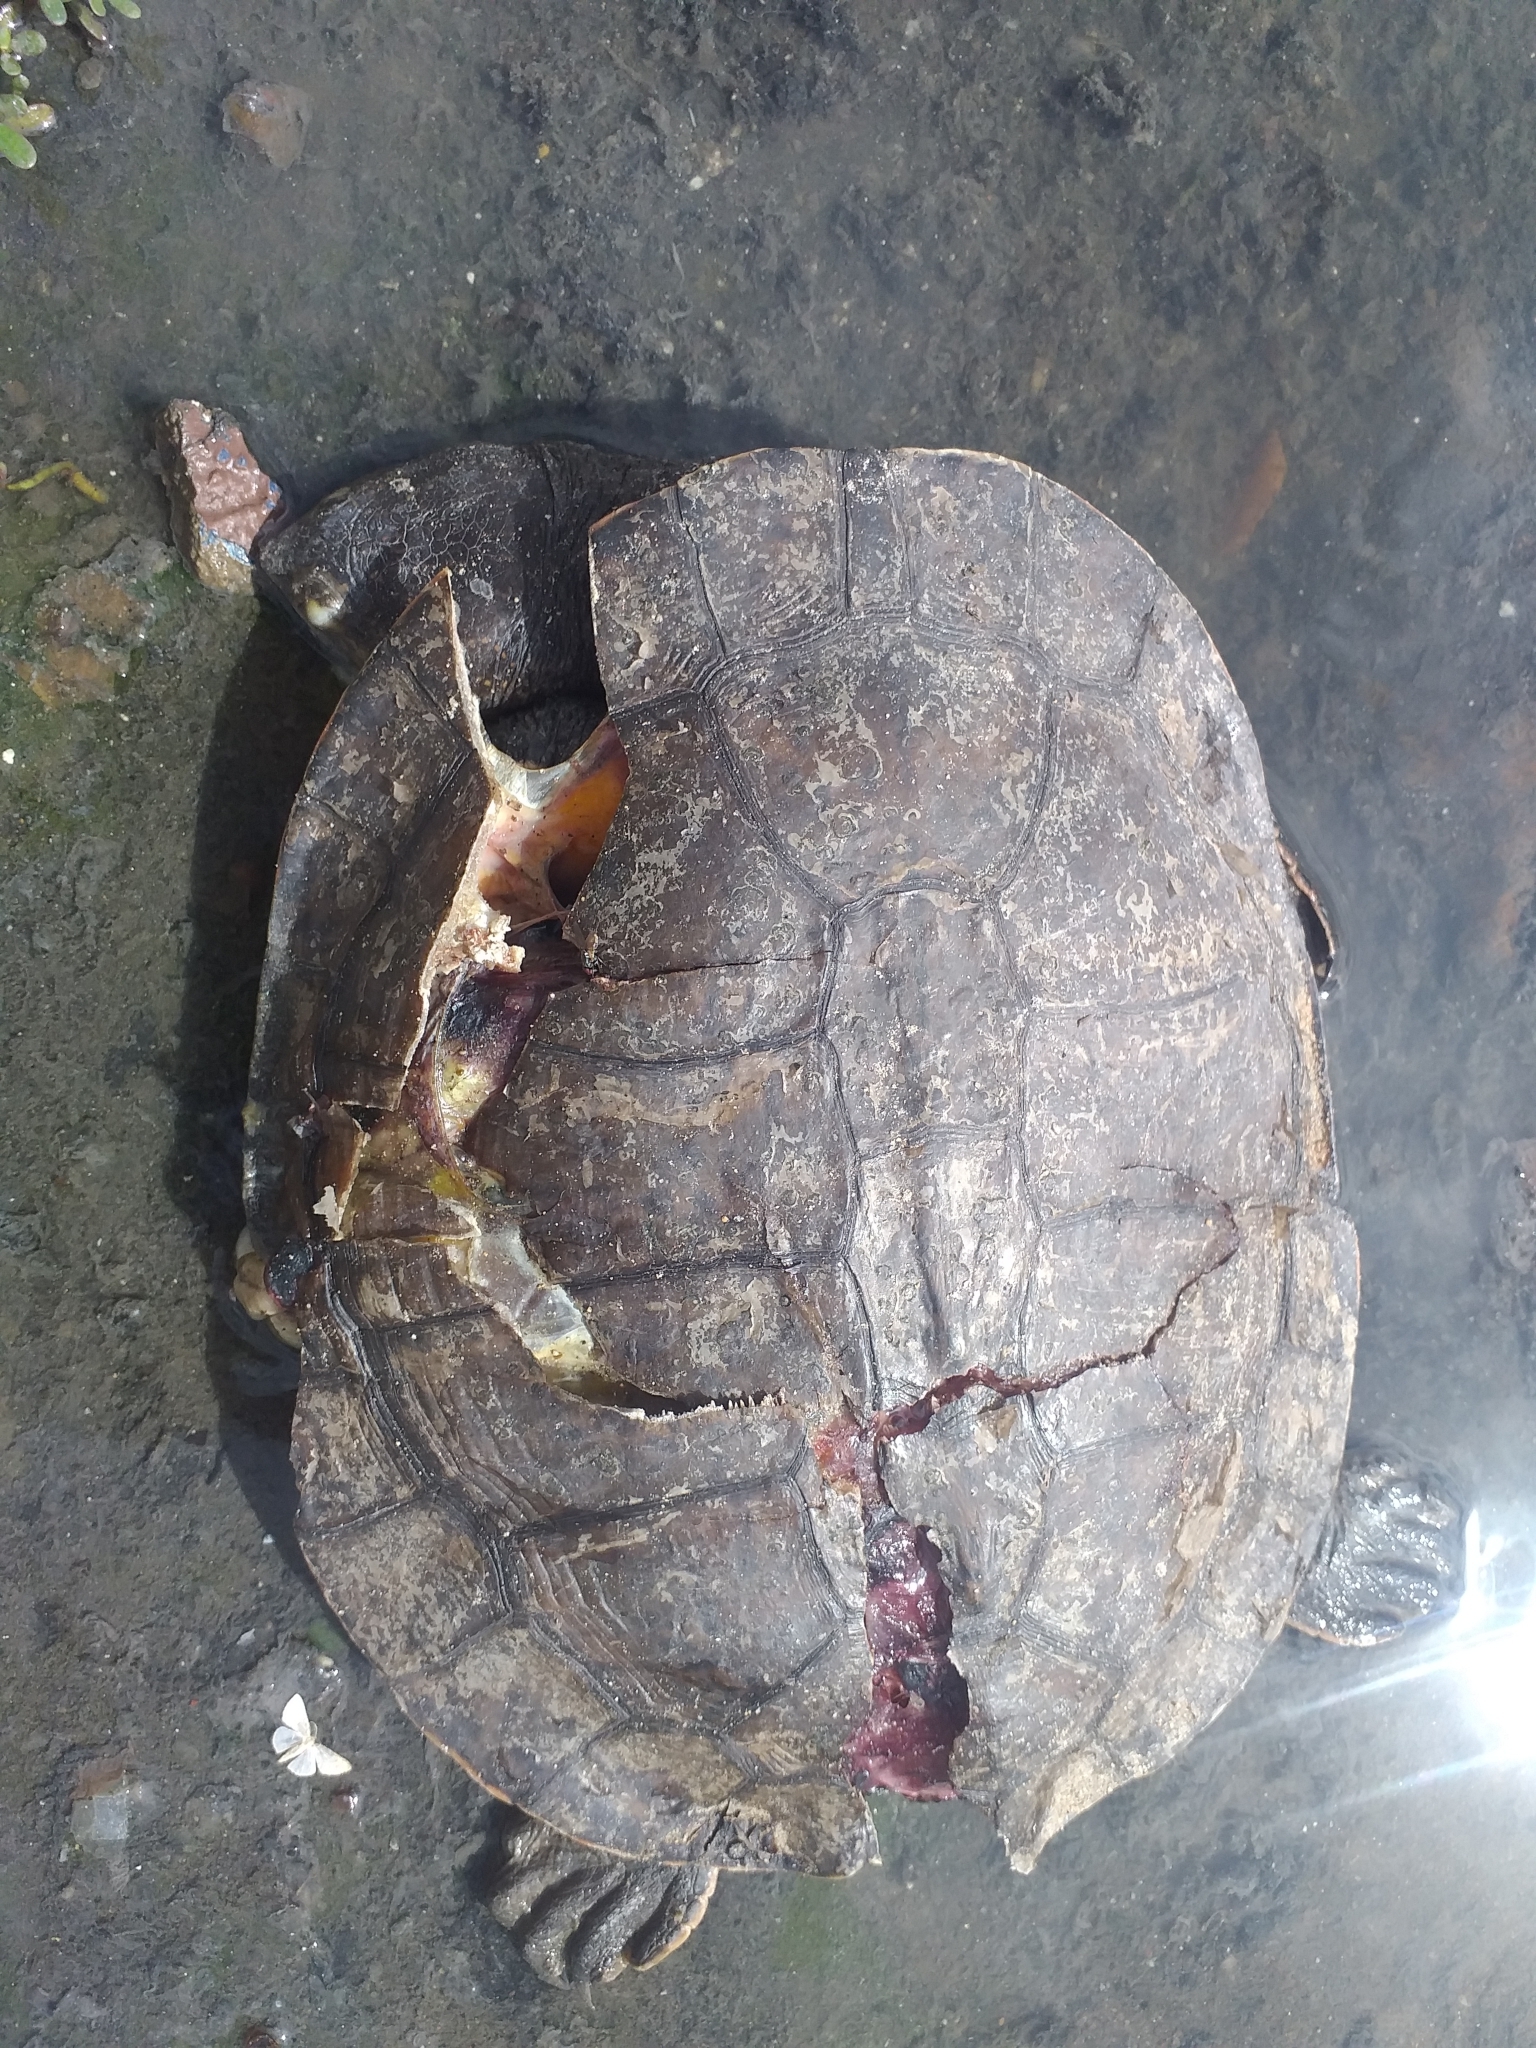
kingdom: Animalia
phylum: Chordata
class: Testudines
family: Chelidae
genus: Mesoclemmys
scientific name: Mesoclemmys tuberculata
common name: Tuberculate toad-headed turtle
